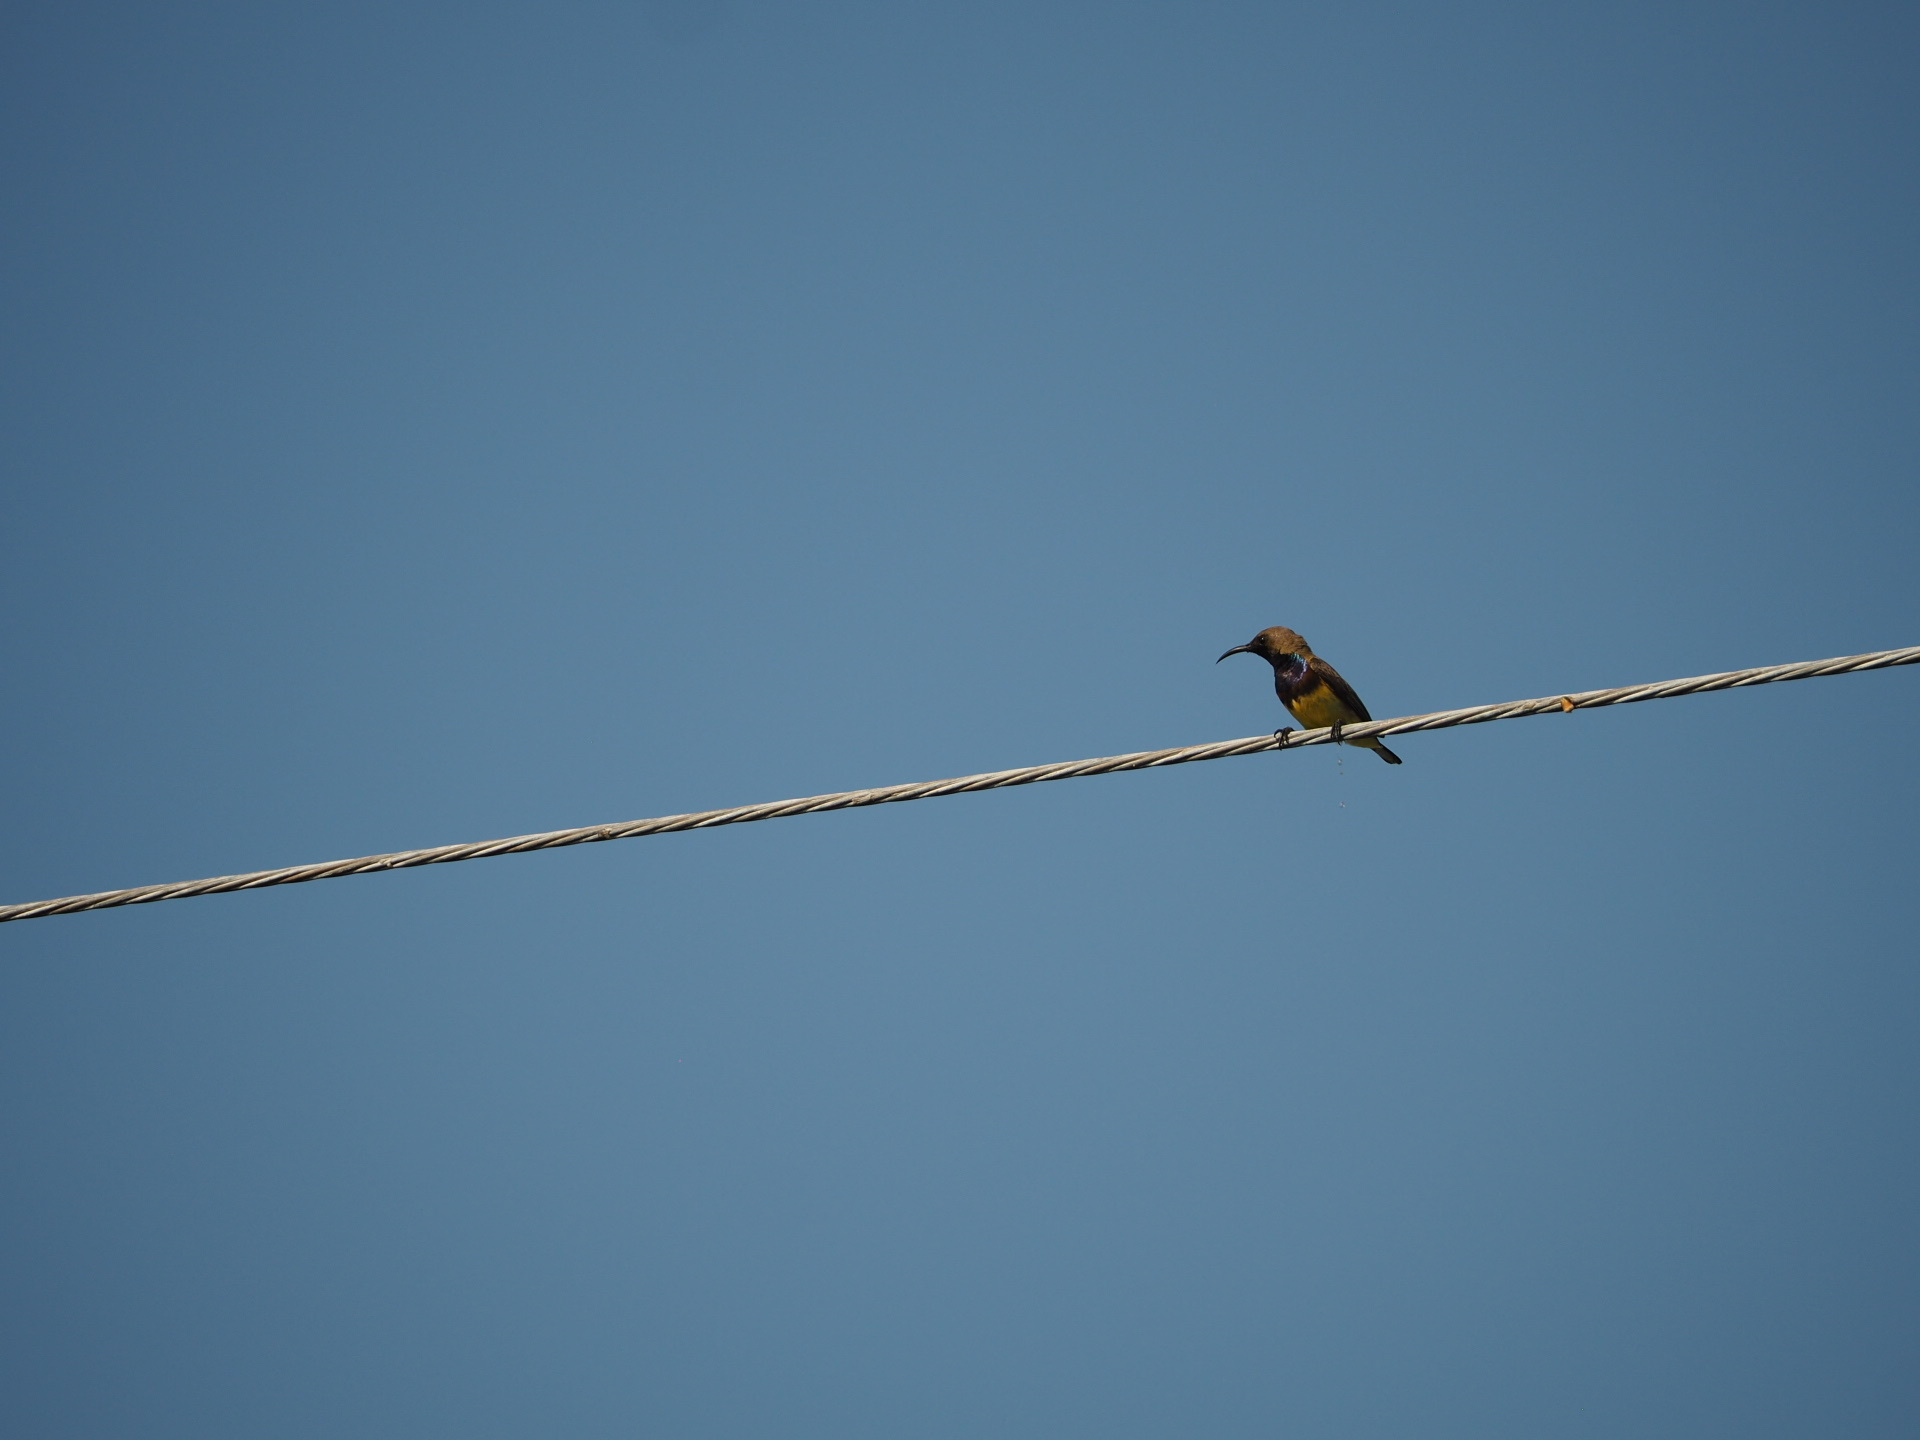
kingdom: Animalia
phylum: Chordata
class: Aves
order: Passeriformes
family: Nectariniidae
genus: Cinnyris
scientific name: Cinnyris
